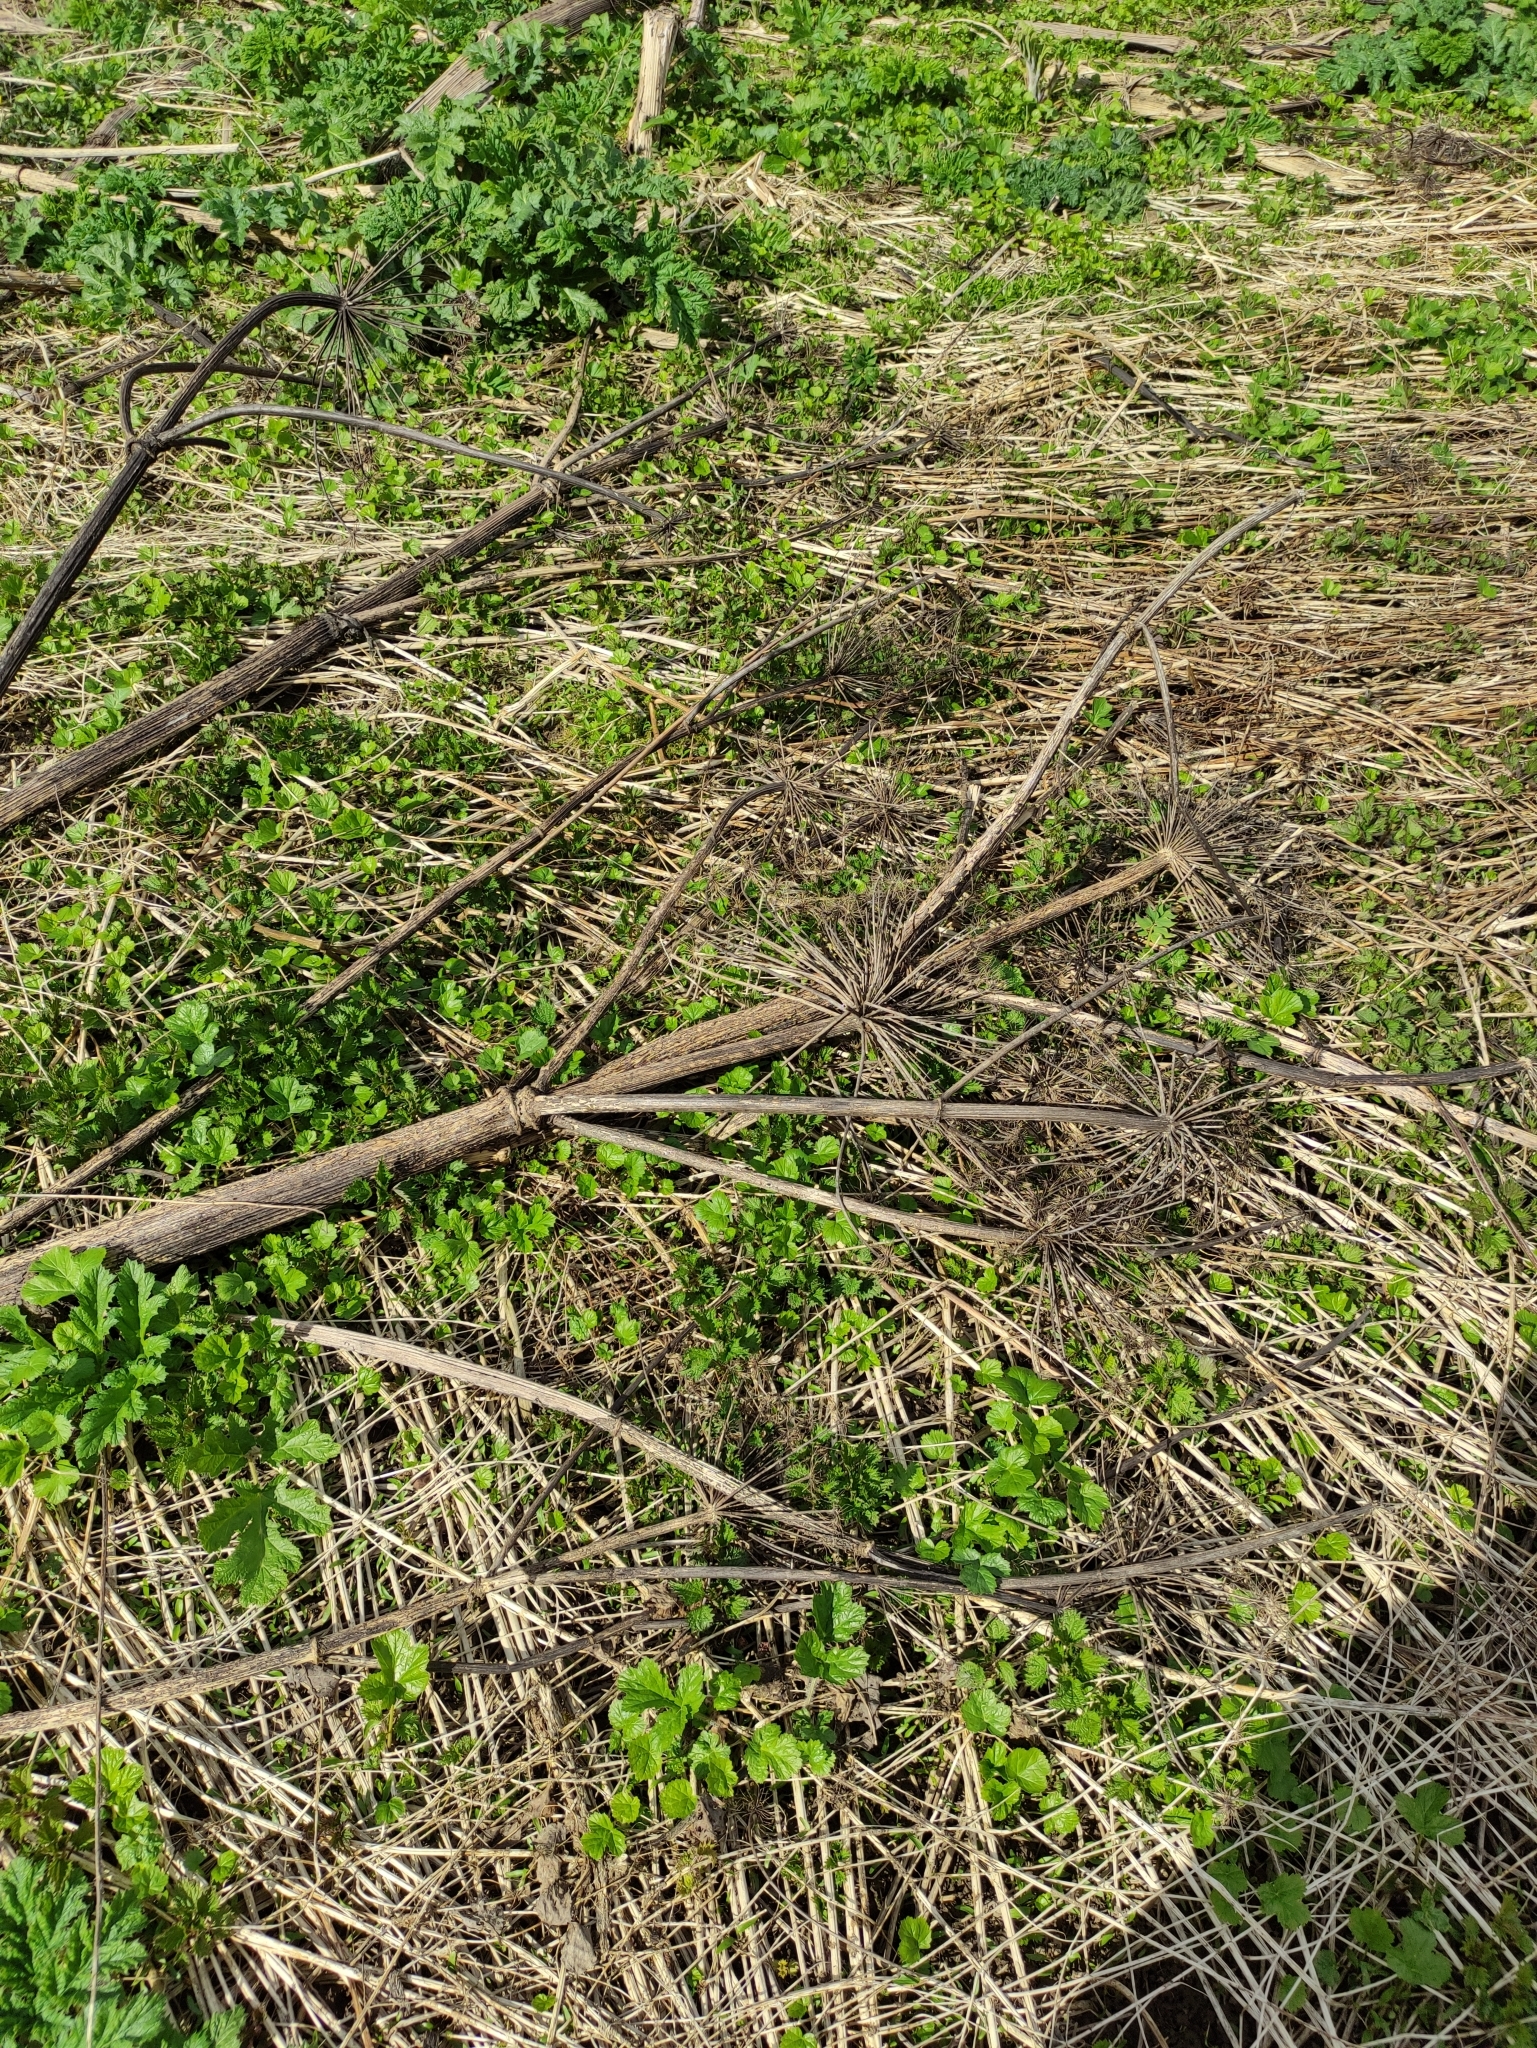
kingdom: Plantae
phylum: Tracheophyta
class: Magnoliopsida
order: Apiales
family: Apiaceae
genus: Heracleum
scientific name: Heracleum sosnowskyi
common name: Sosnowsky's hogweed
